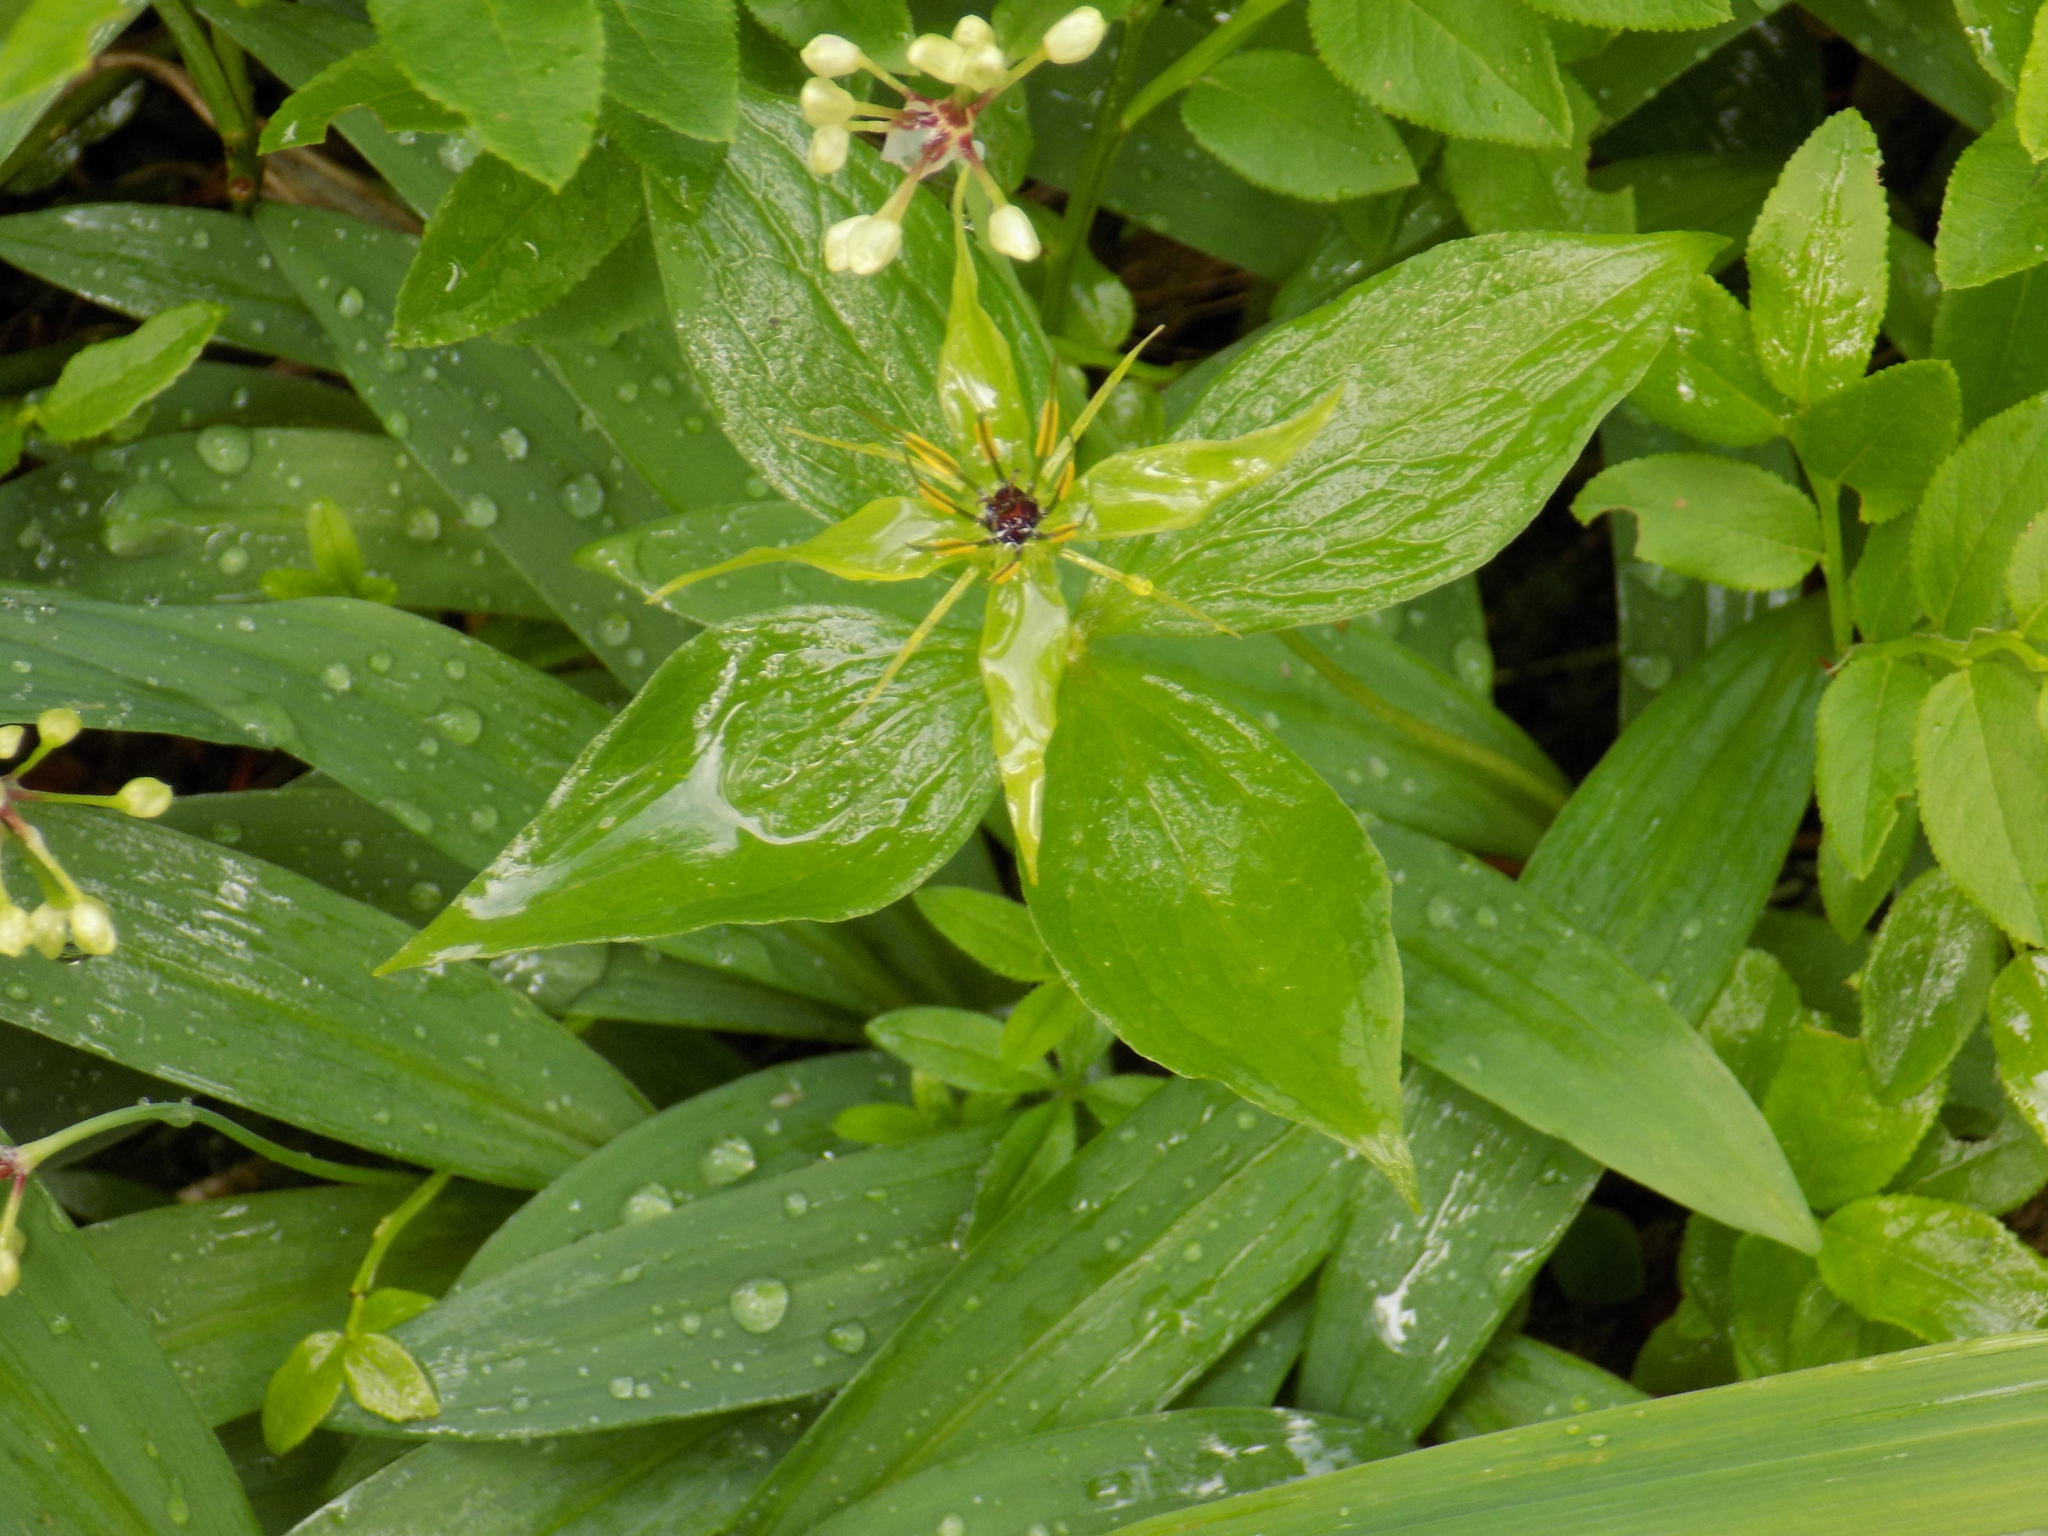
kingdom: Plantae
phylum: Tracheophyta
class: Liliopsida
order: Liliales
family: Melanthiaceae
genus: Paris
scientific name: Paris quadrifolia
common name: Herb-paris
